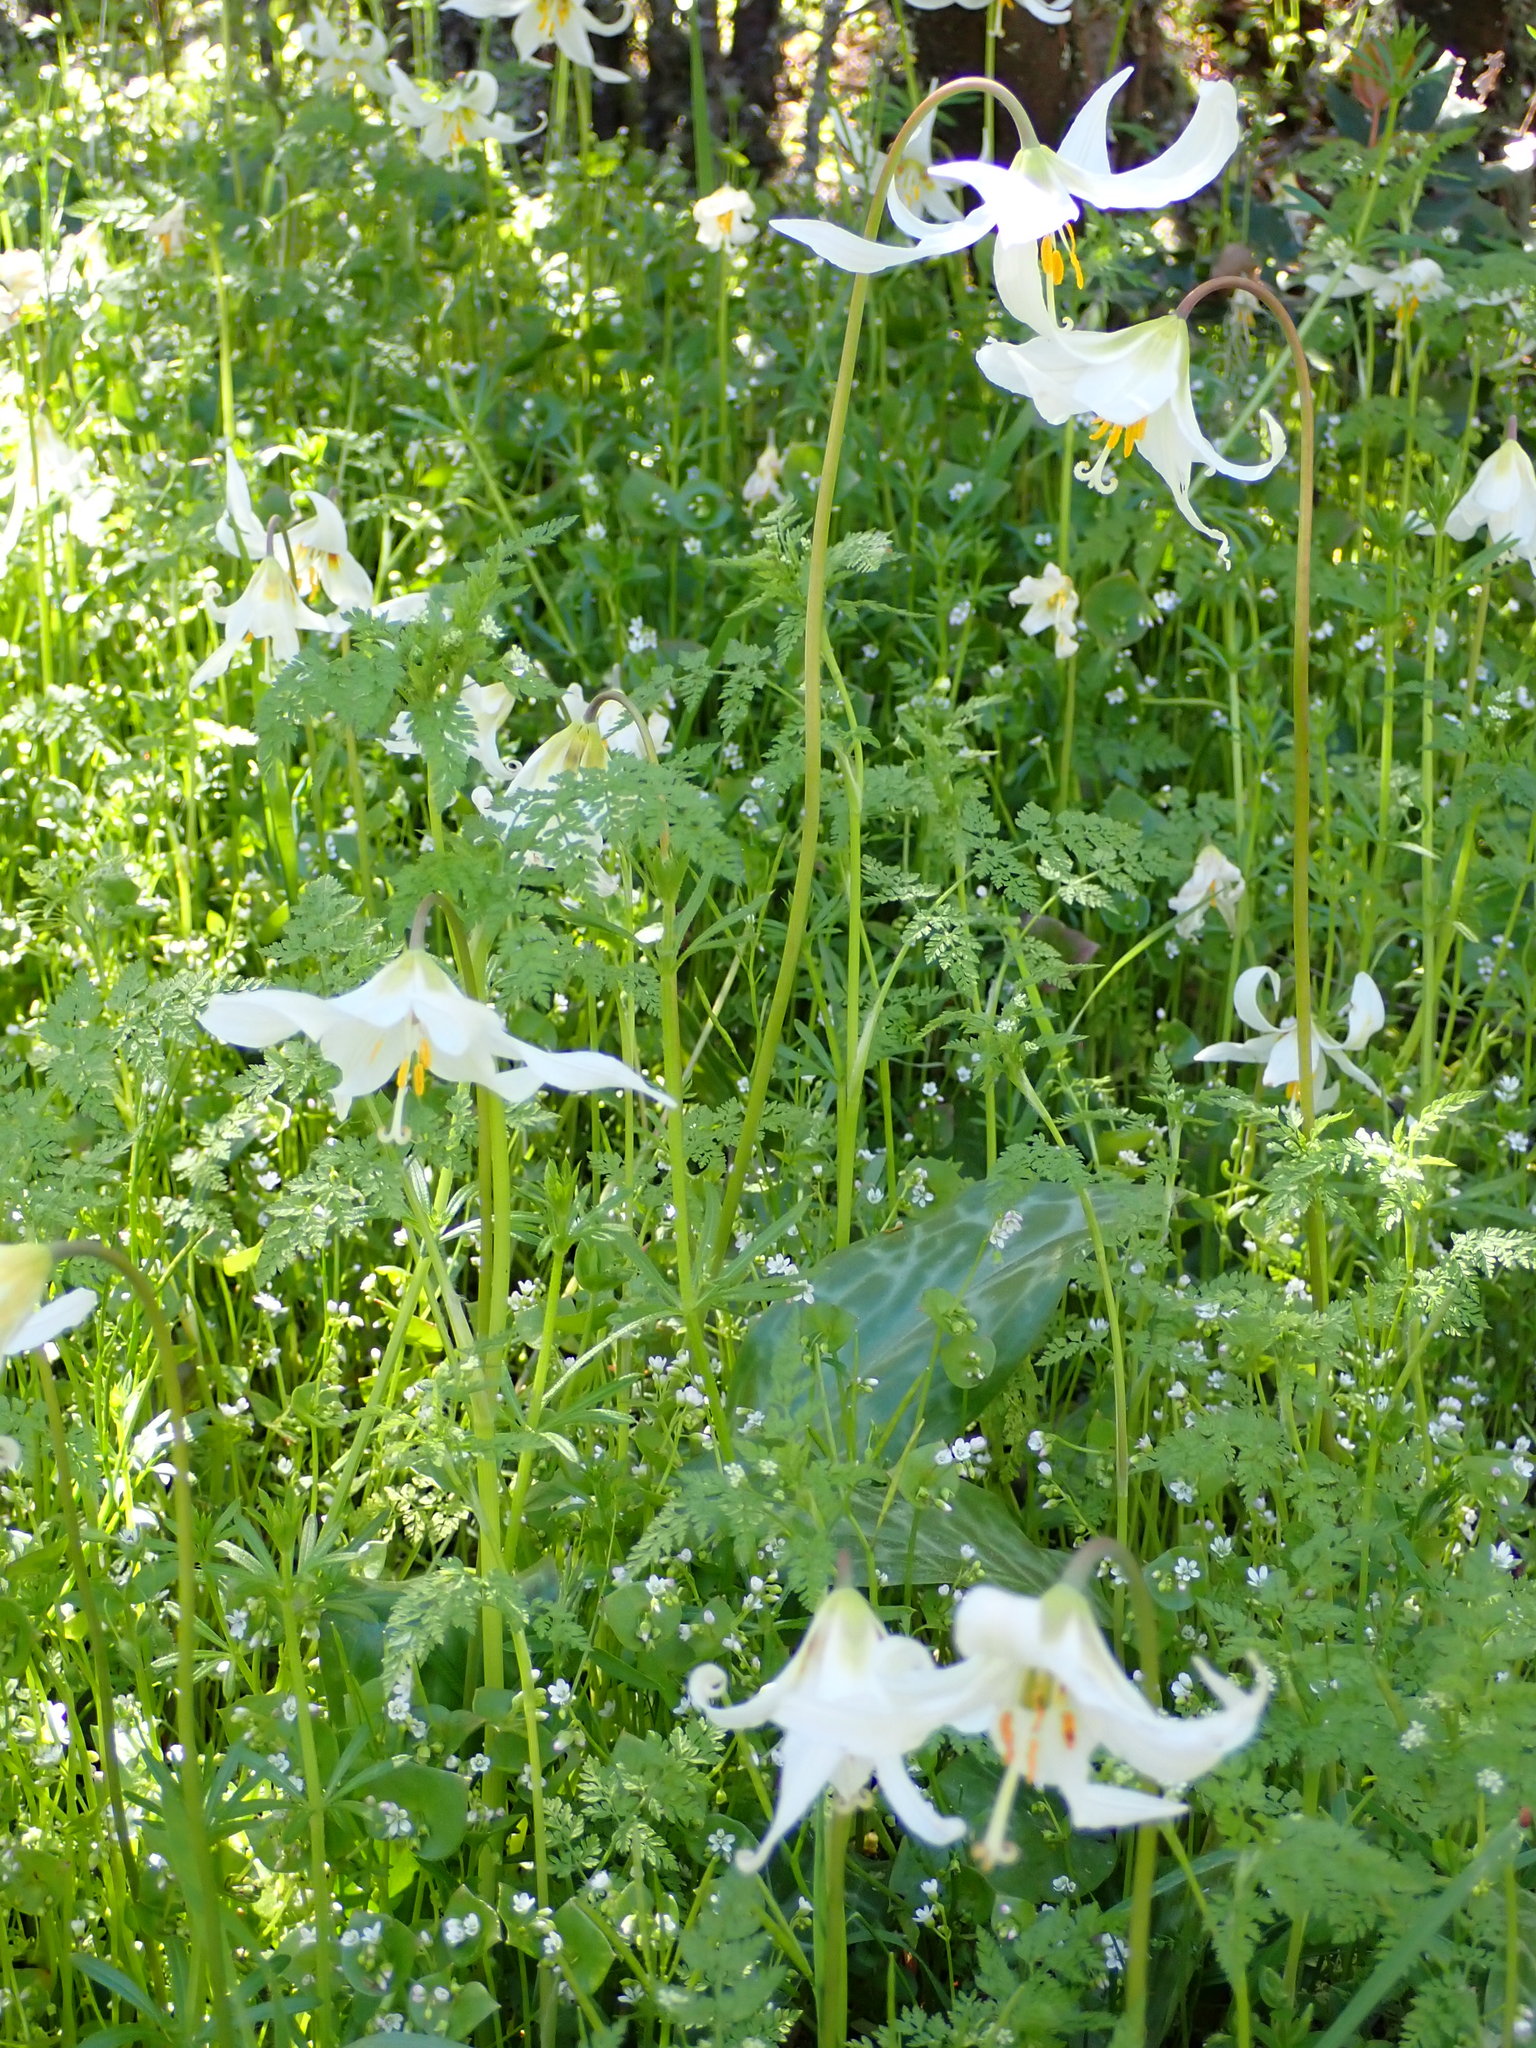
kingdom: Plantae
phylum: Tracheophyta
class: Liliopsida
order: Liliales
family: Liliaceae
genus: Erythronium
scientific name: Erythronium oregonum
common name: Giant adder's-tongue
